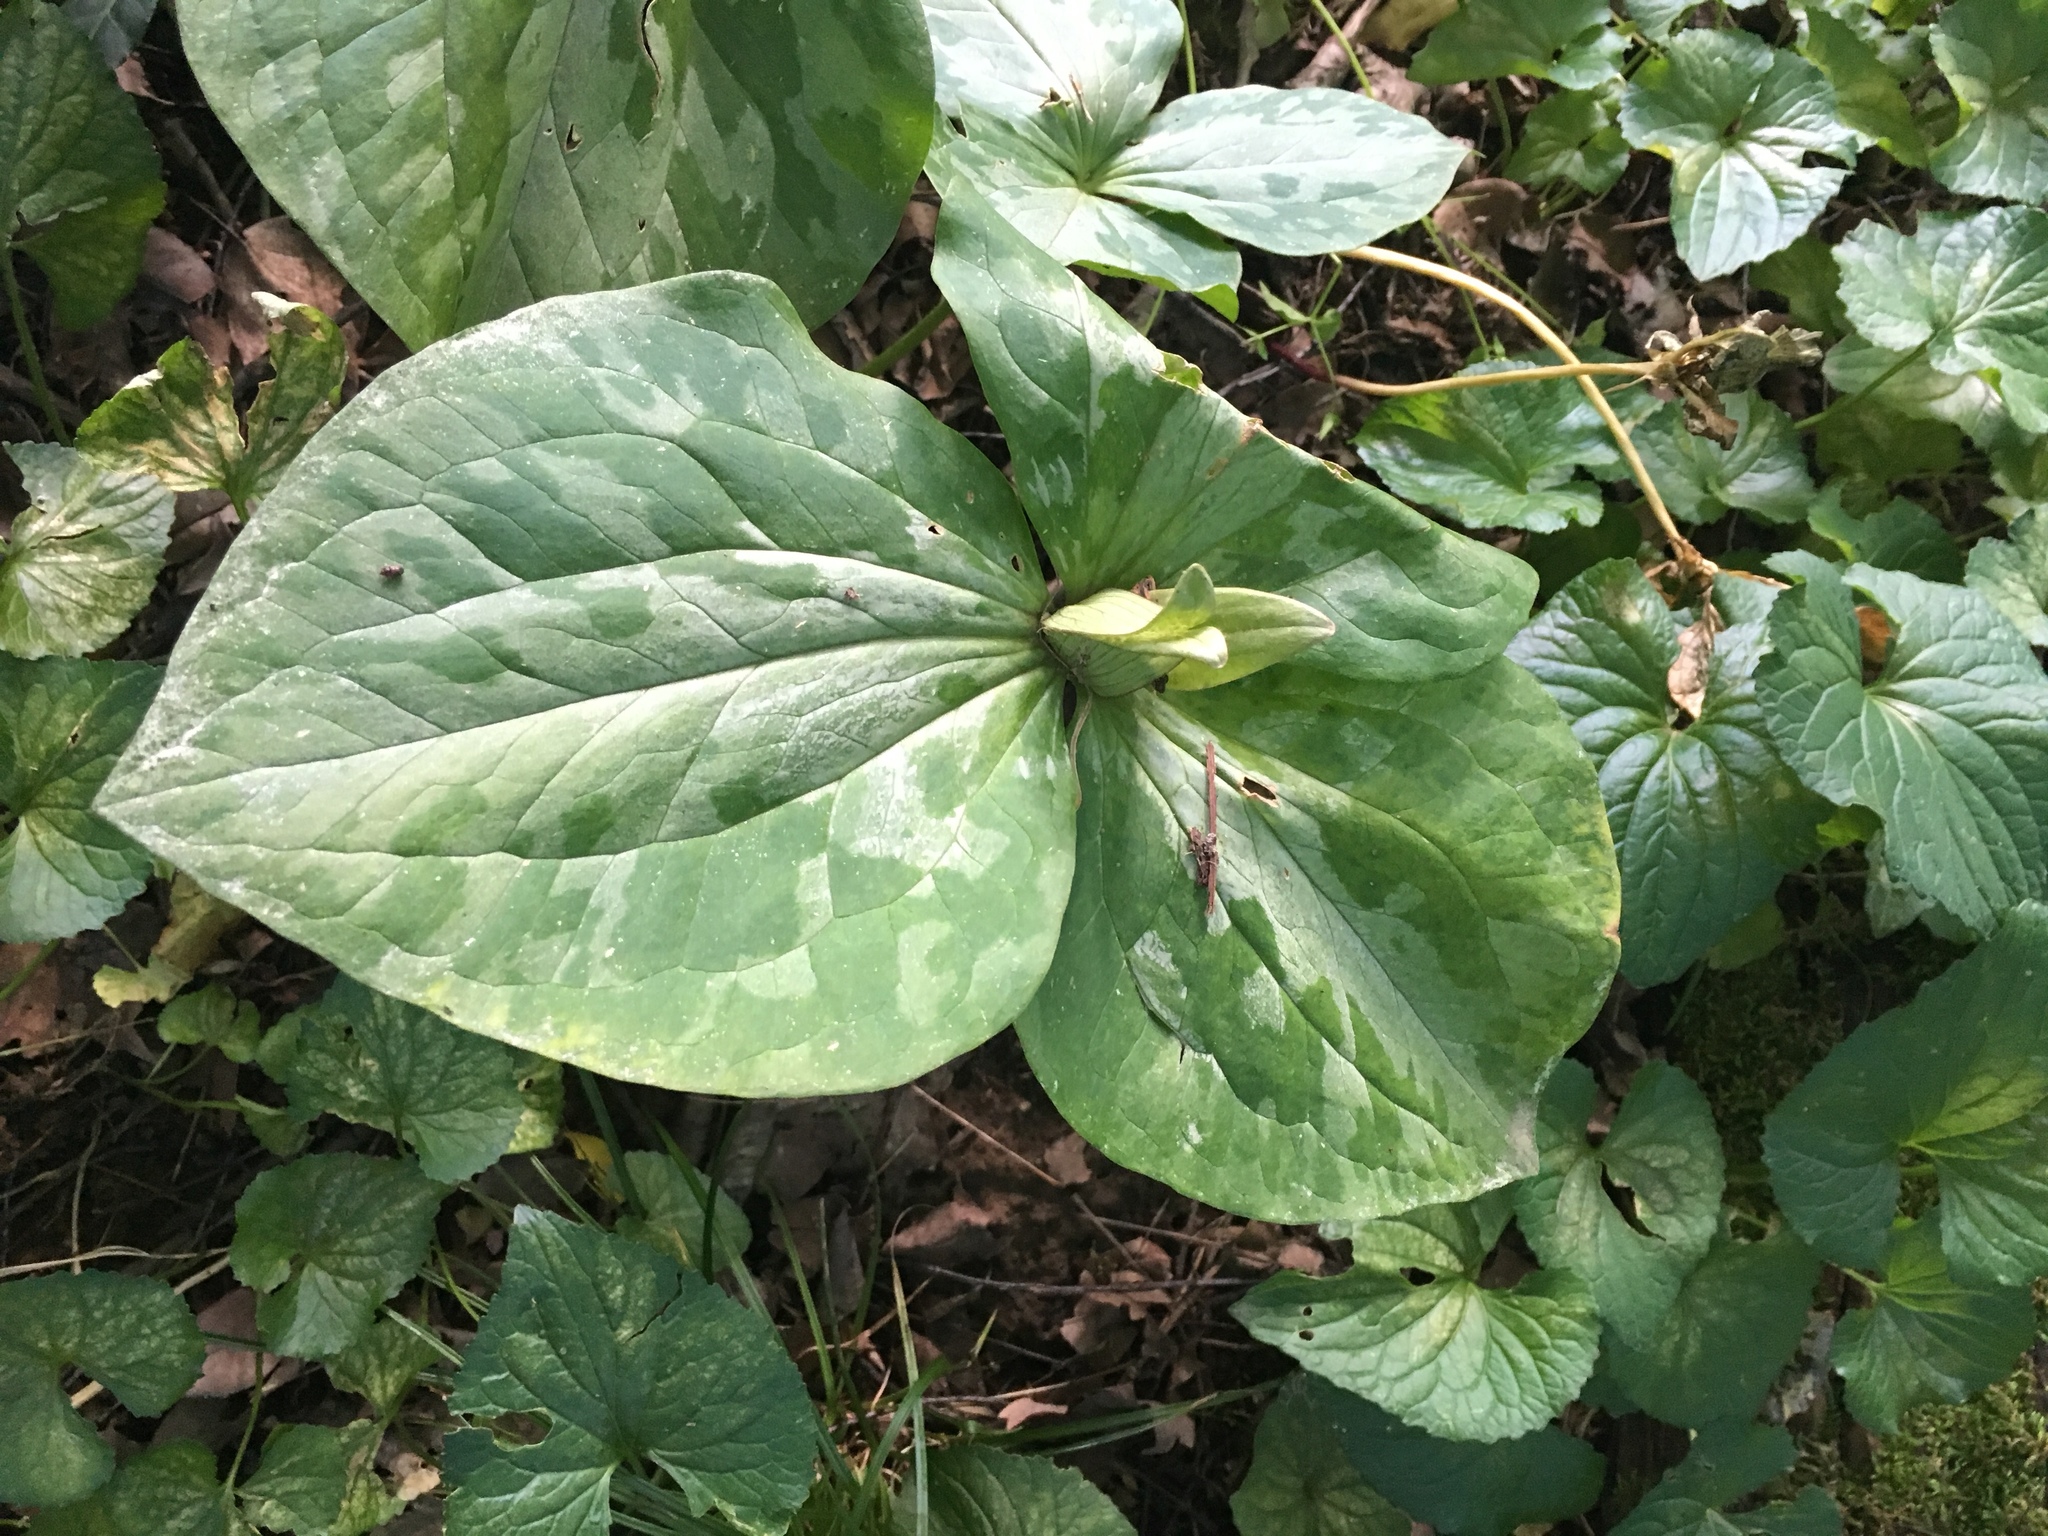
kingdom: Plantae
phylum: Tracheophyta
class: Liliopsida
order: Liliales
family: Melanthiaceae
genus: Trillium
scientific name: Trillium sessile
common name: Sessile trillium
